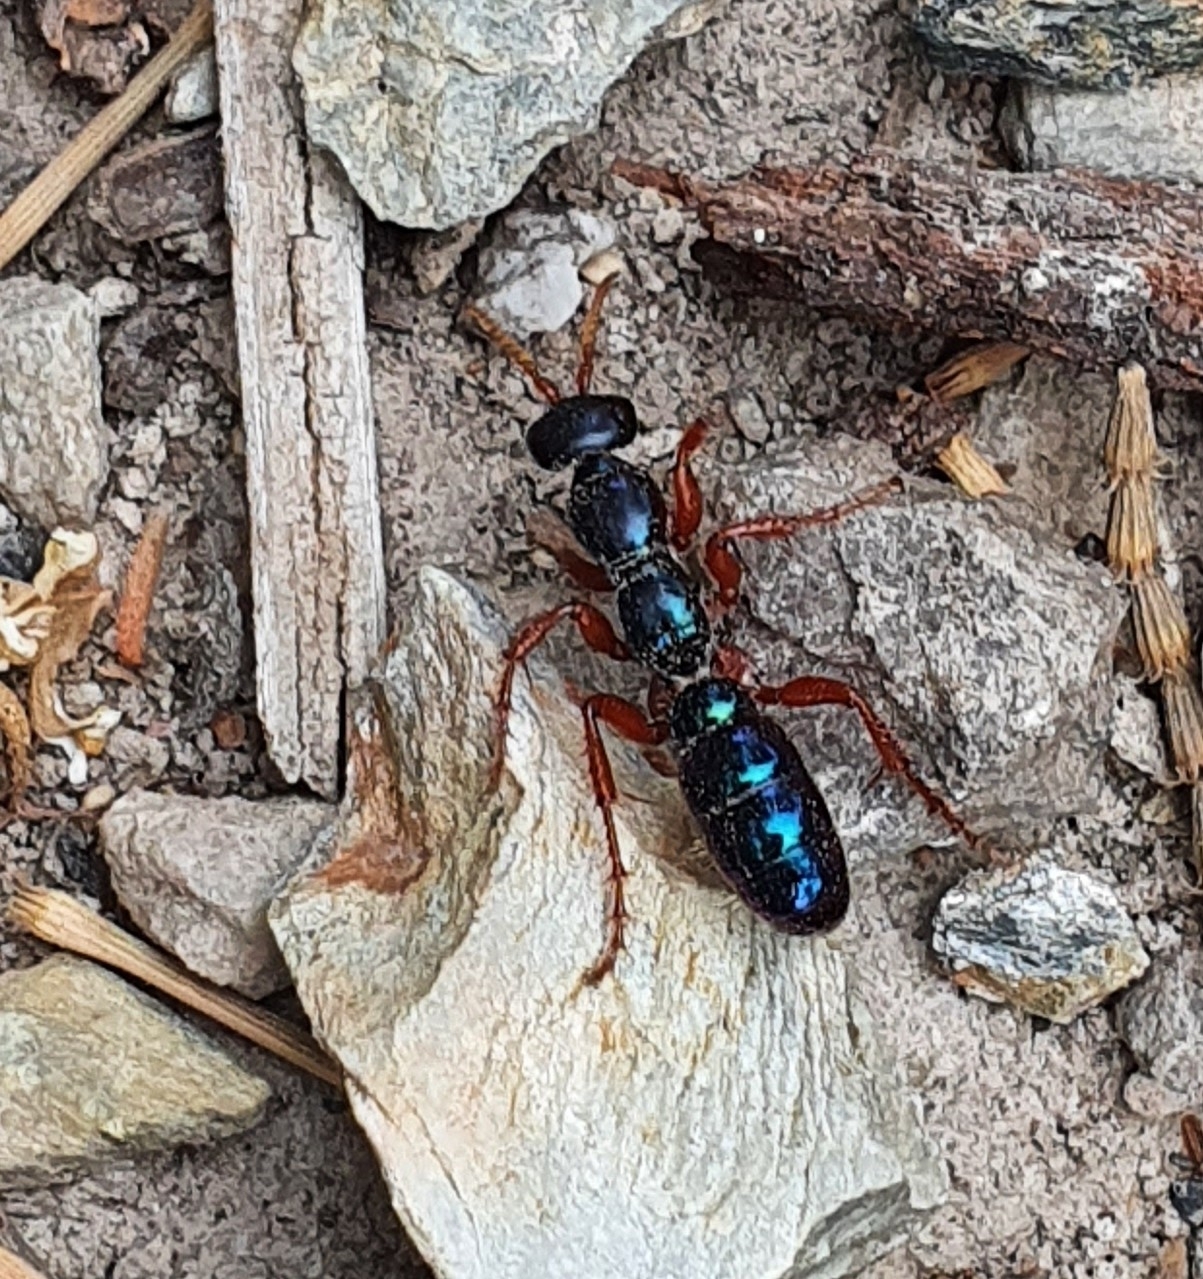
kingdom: Animalia
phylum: Arthropoda
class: Insecta
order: Hymenoptera
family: Tiphiidae
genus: Diamma
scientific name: Diamma
